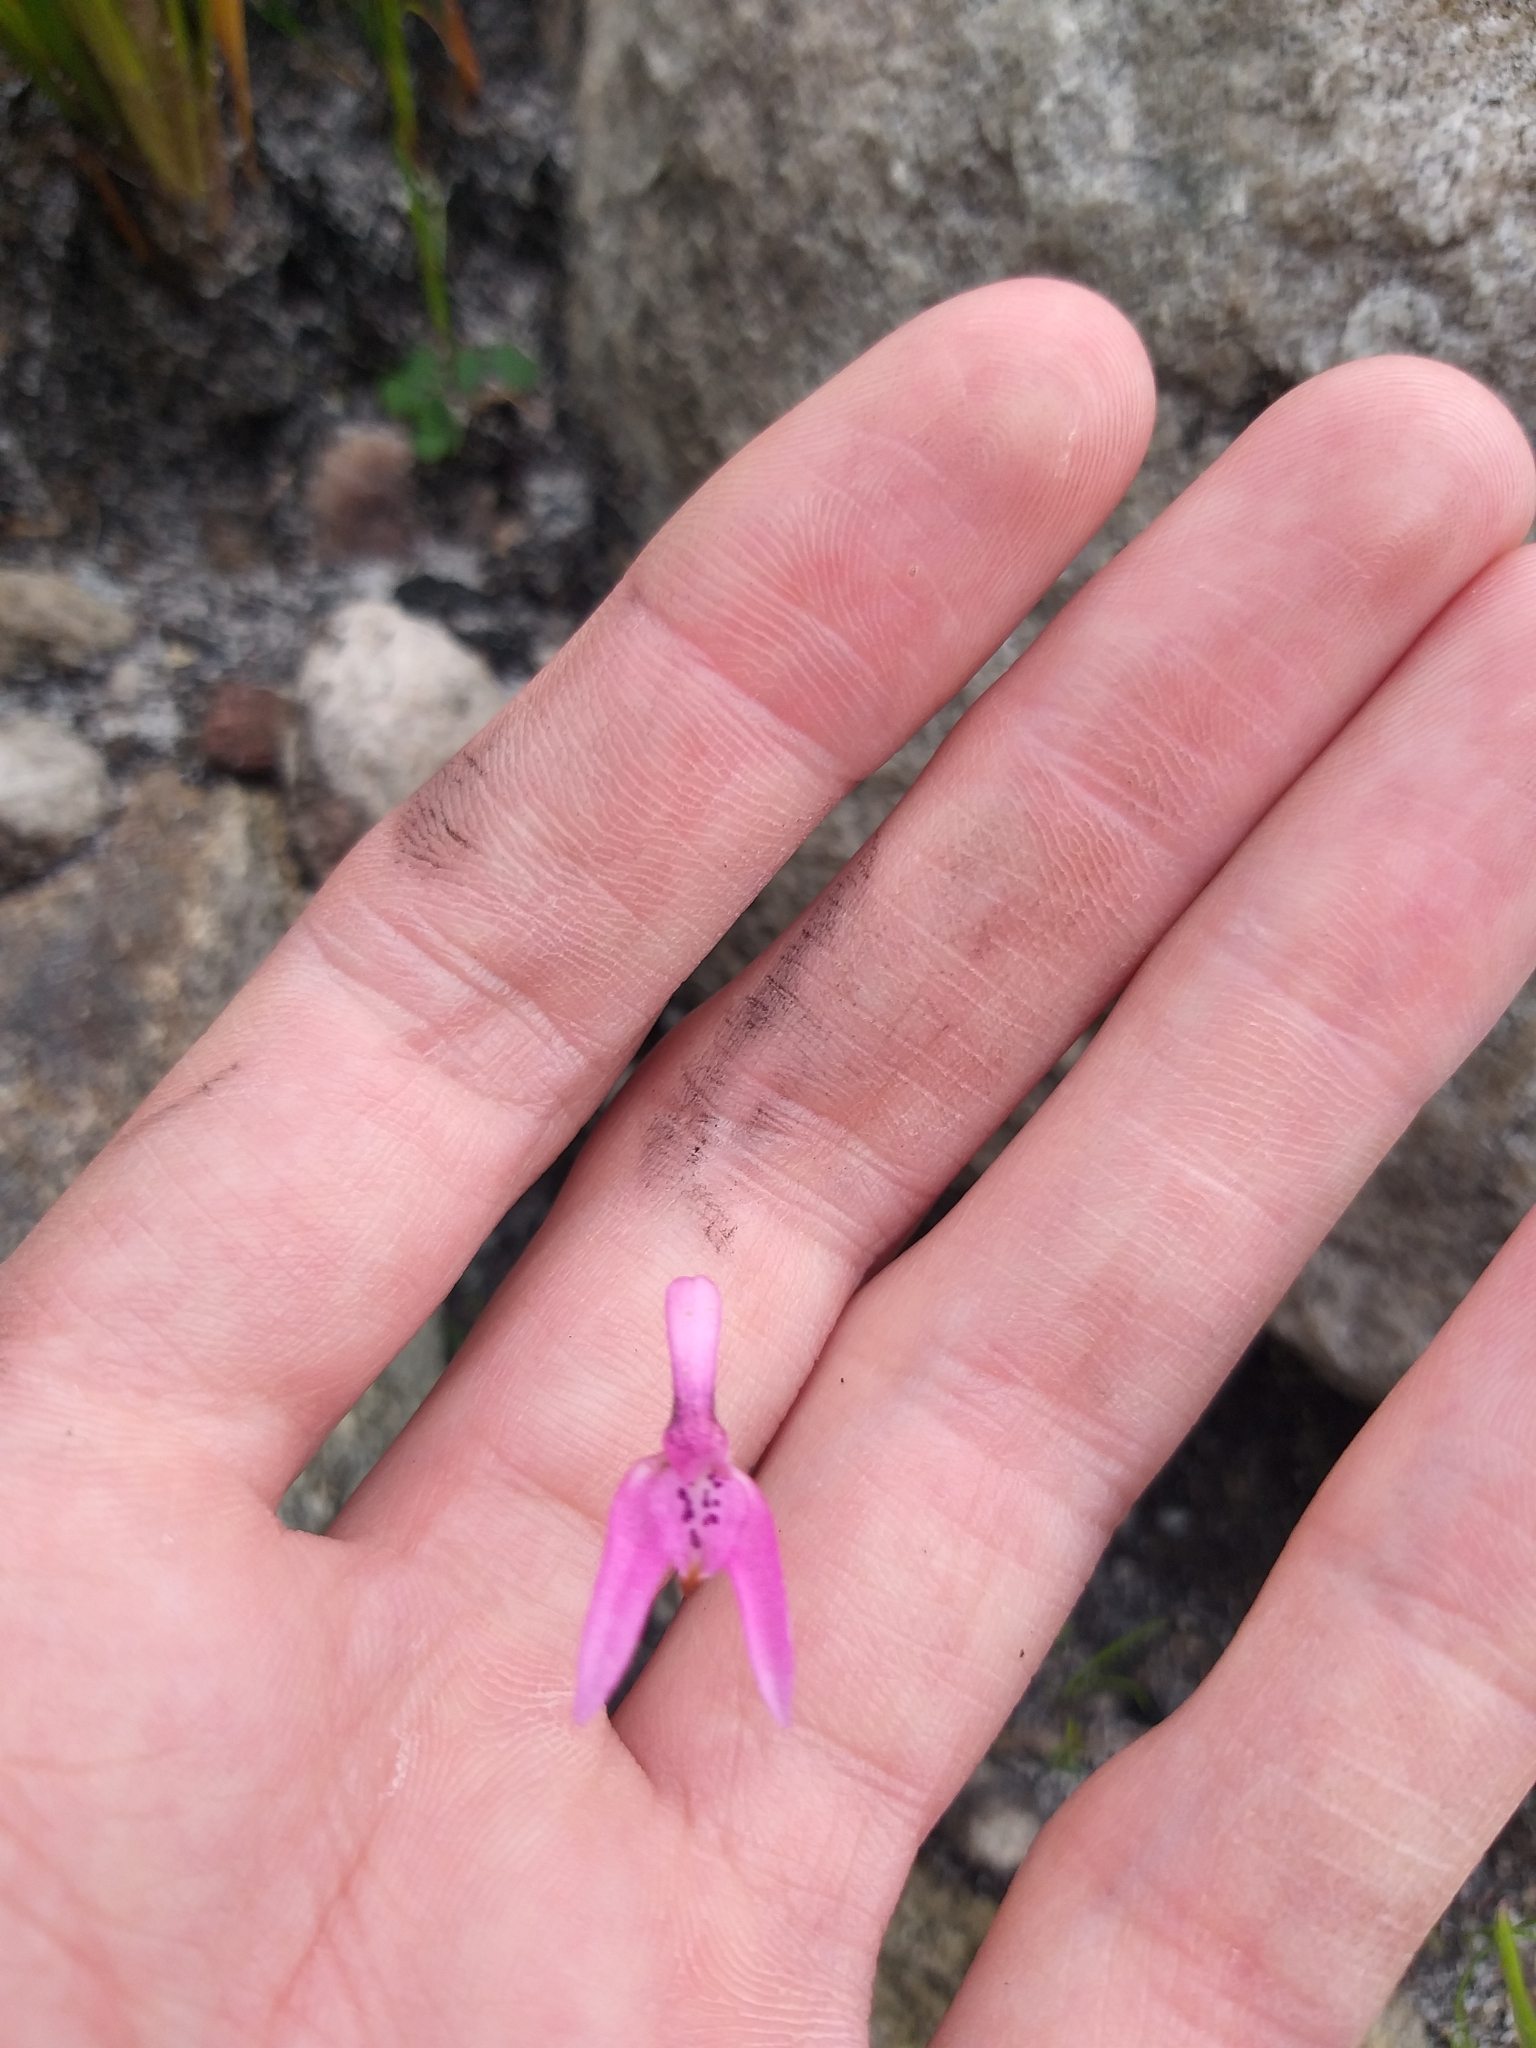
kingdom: Plantae
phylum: Tracheophyta
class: Liliopsida
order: Asparagales
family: Orchidaceae
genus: Disa
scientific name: Disa obliqua
